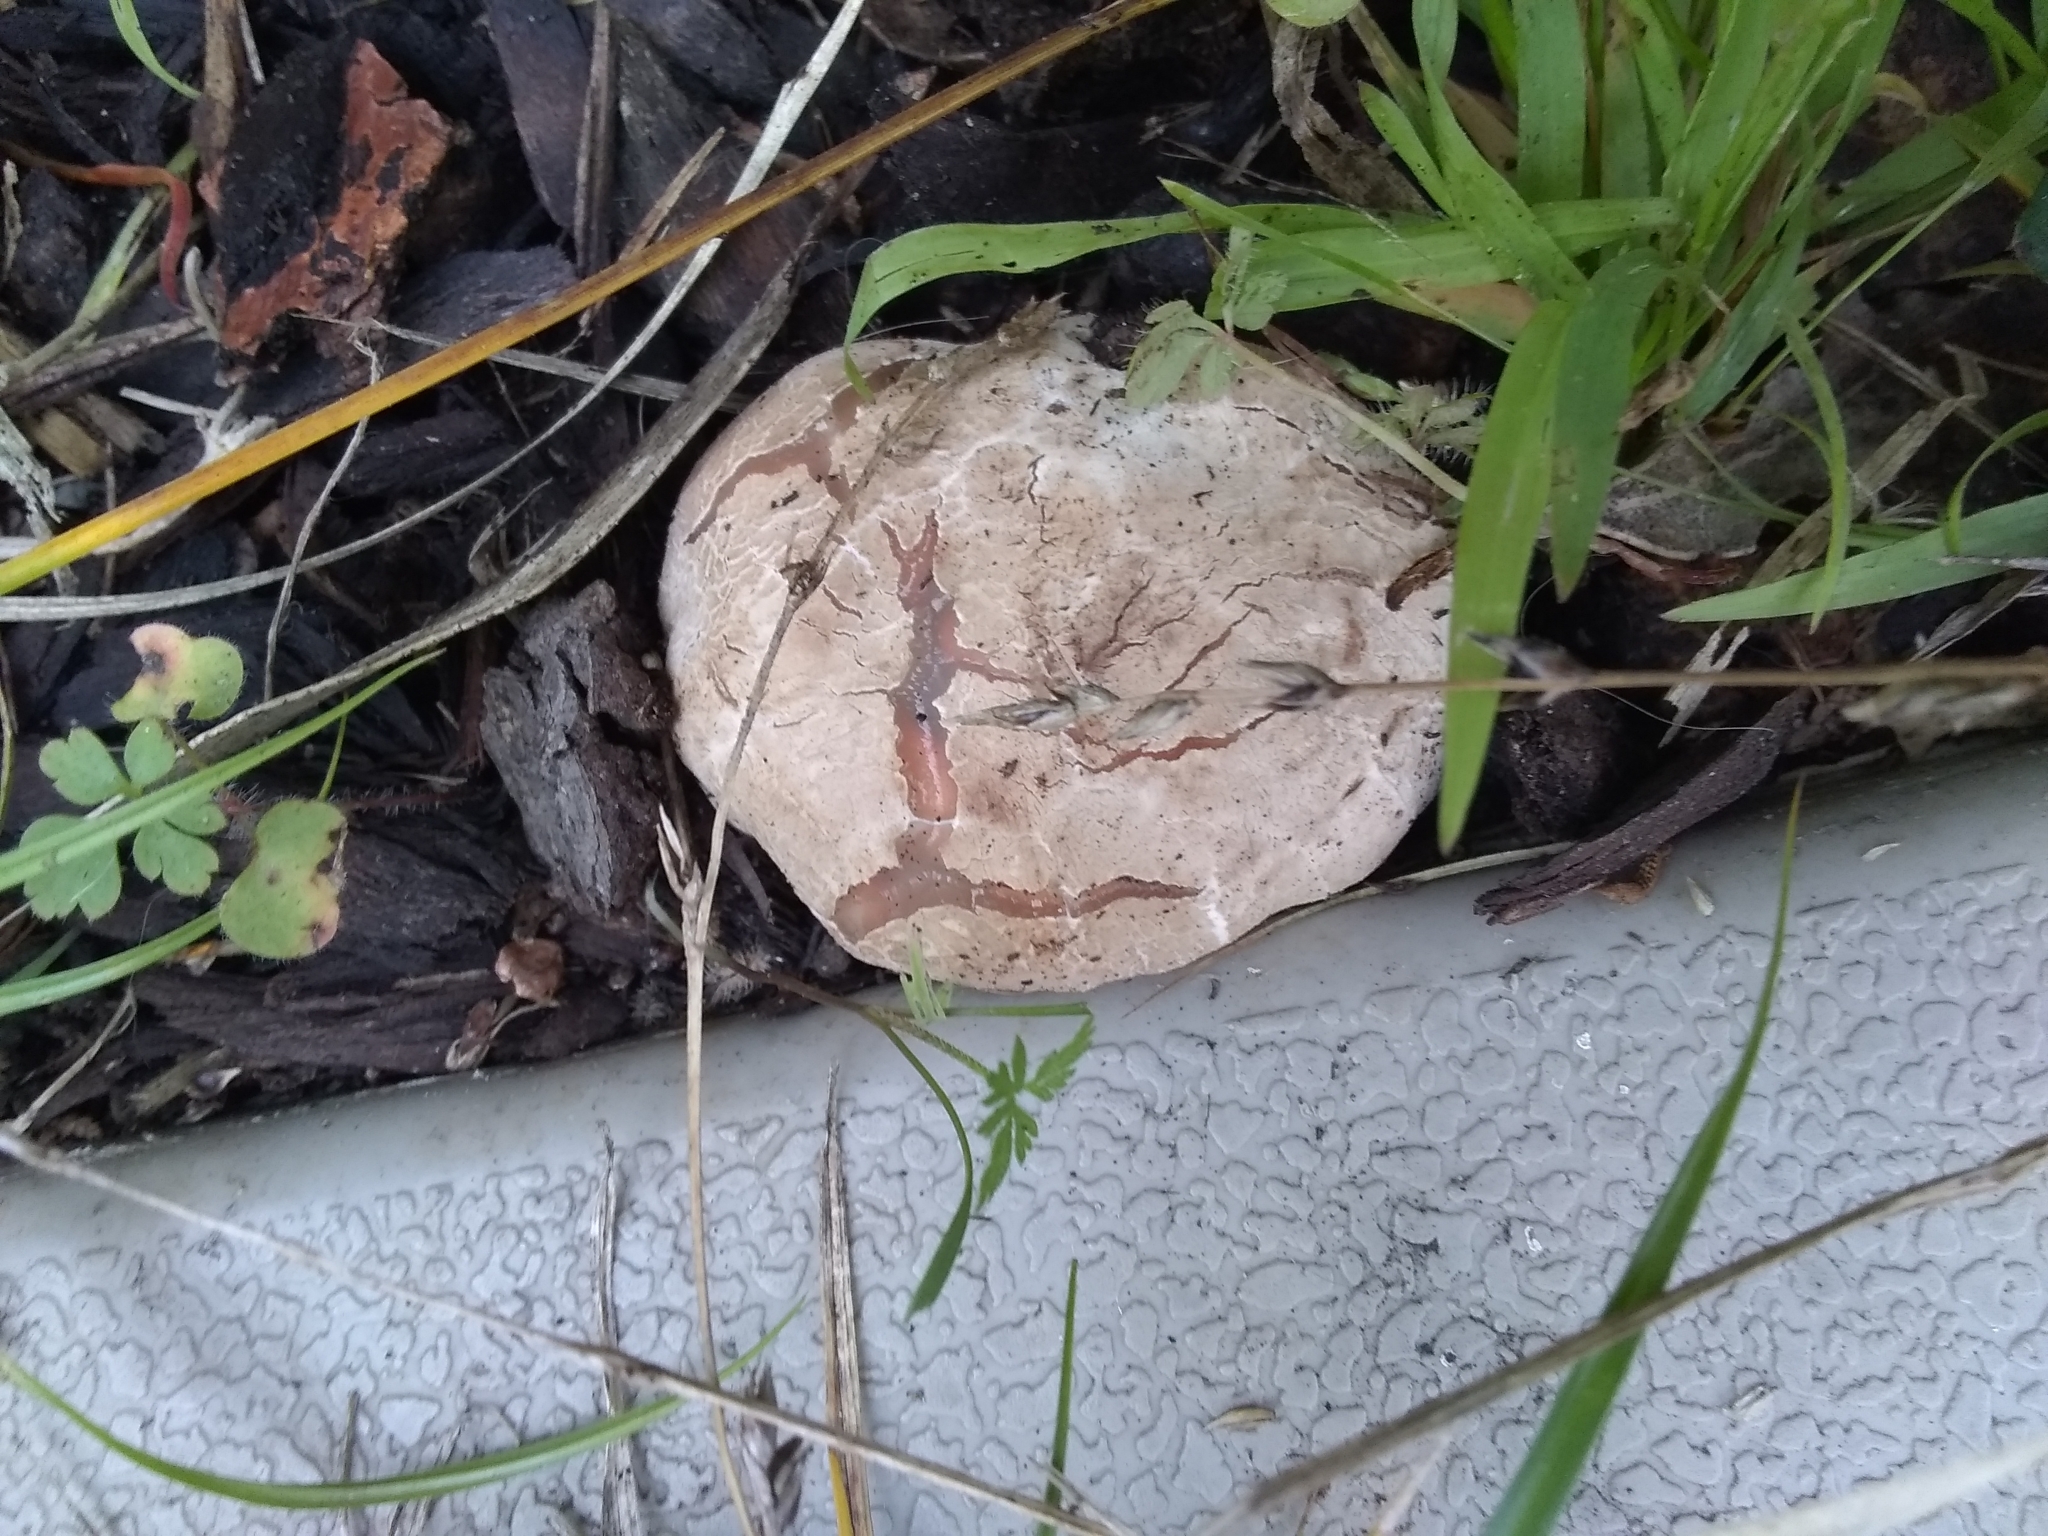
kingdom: Fungi
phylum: Basidiomycota
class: Agaricomycetes
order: Phallales
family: Phallaceae
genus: Clathrus
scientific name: Clathrus ruber
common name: Red cage
